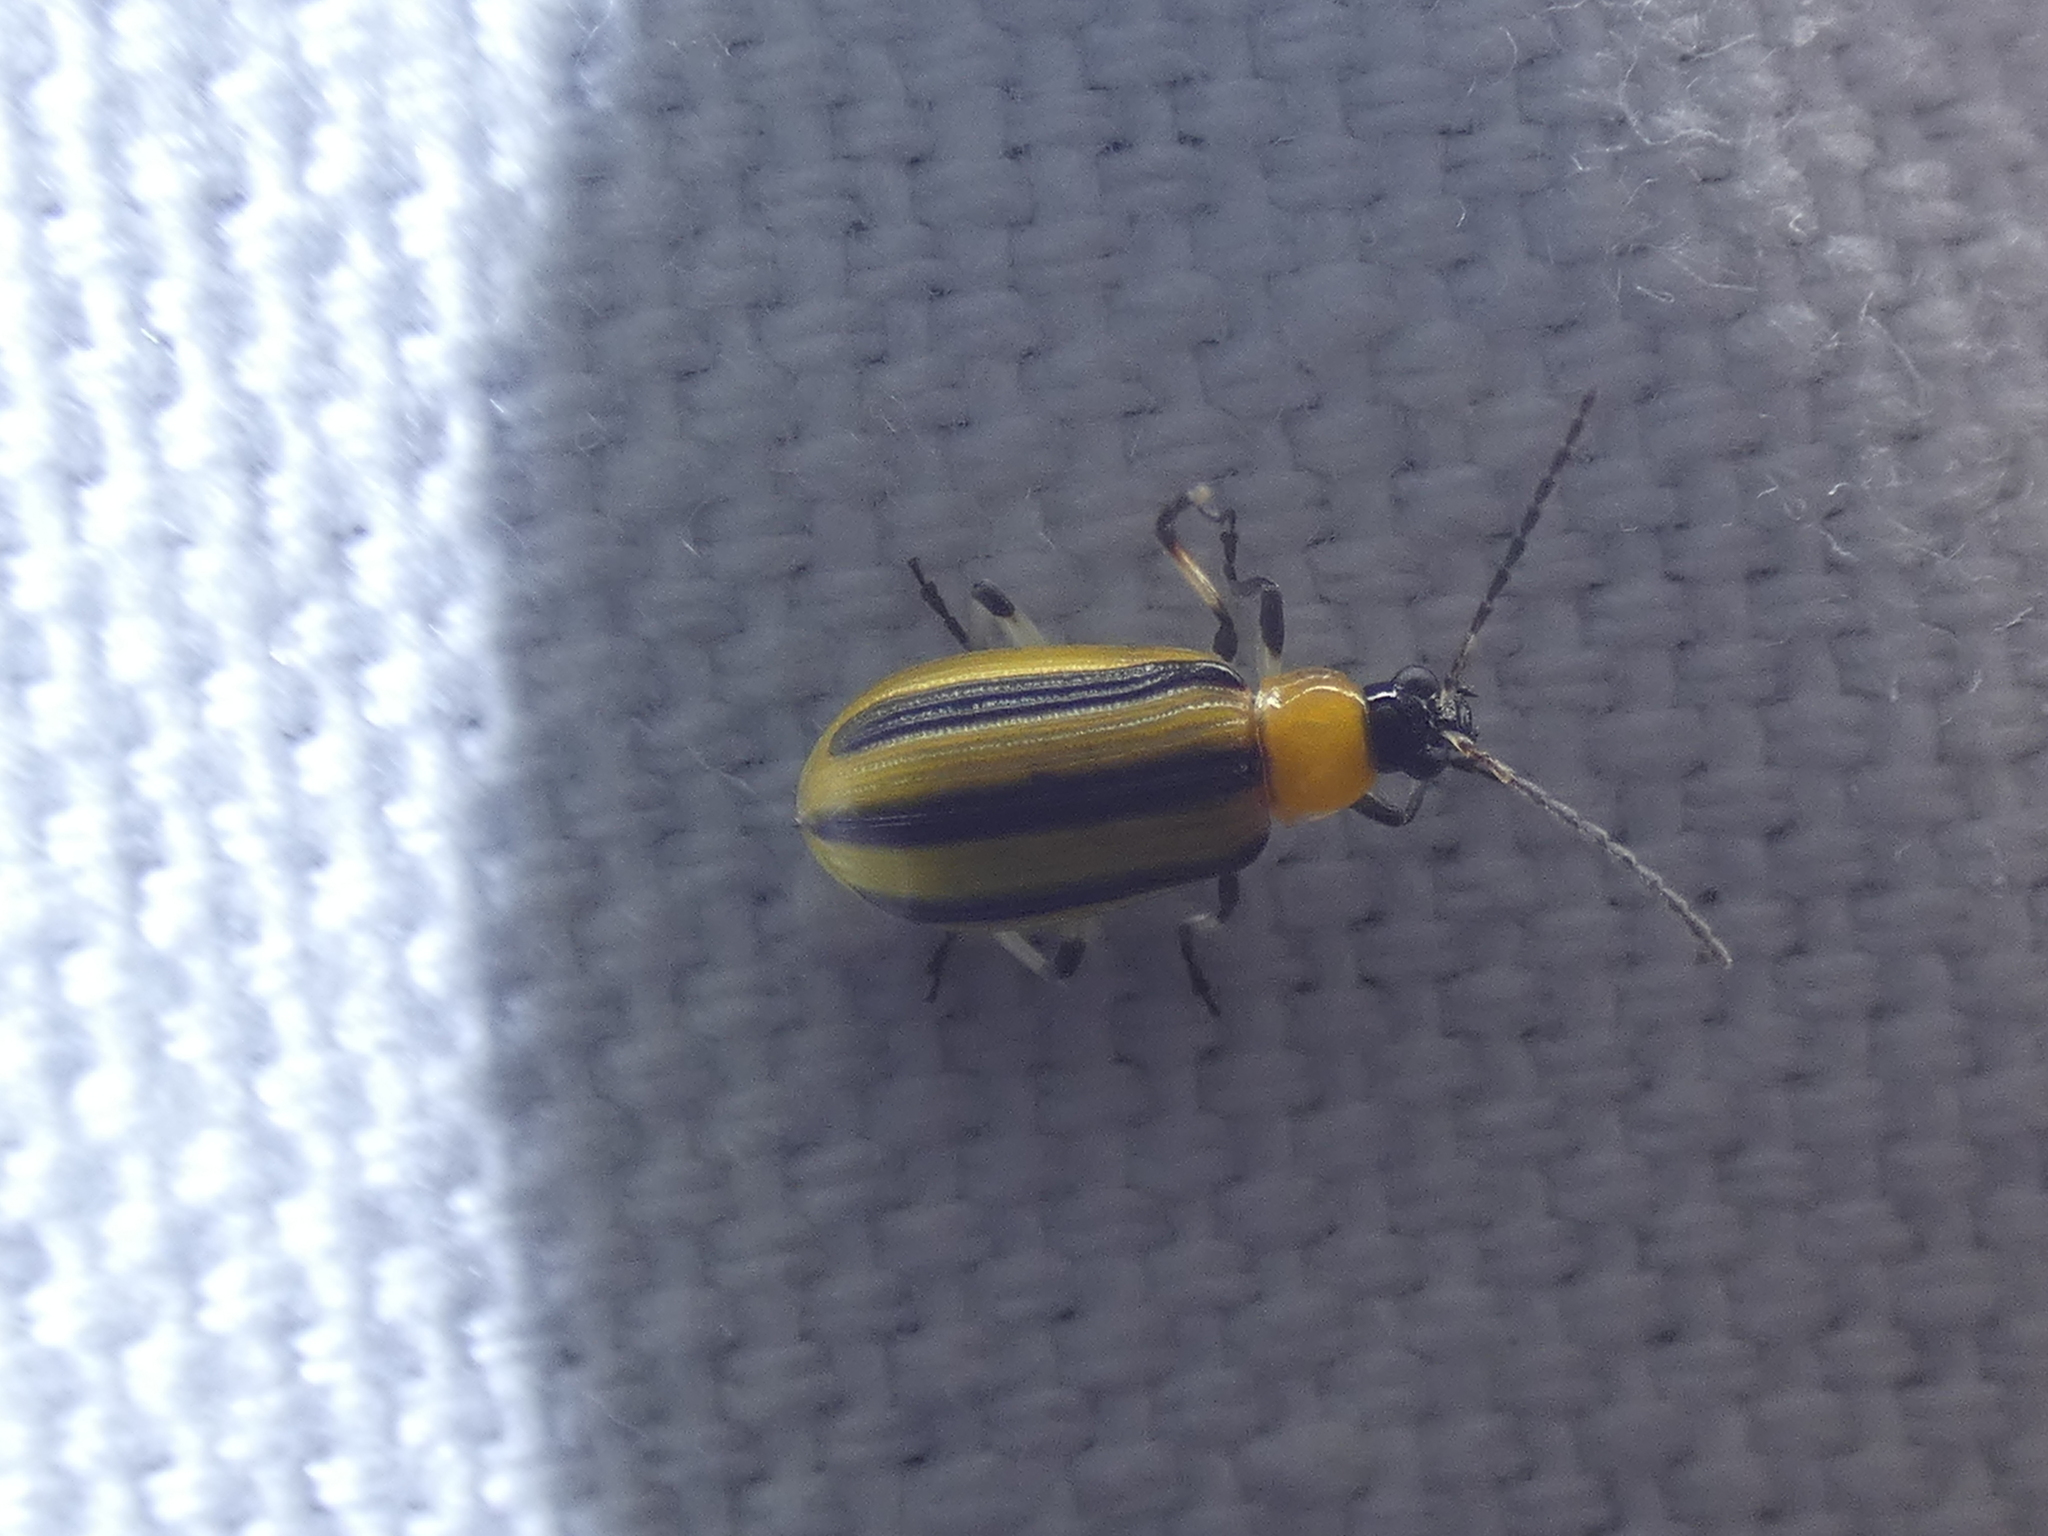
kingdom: Animalia
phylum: Arthropoda
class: Insecta
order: Coleoptera
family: Chrysomelidae
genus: Acalymma
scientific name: Acalymma vittatum
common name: Striped cucumber beetle
